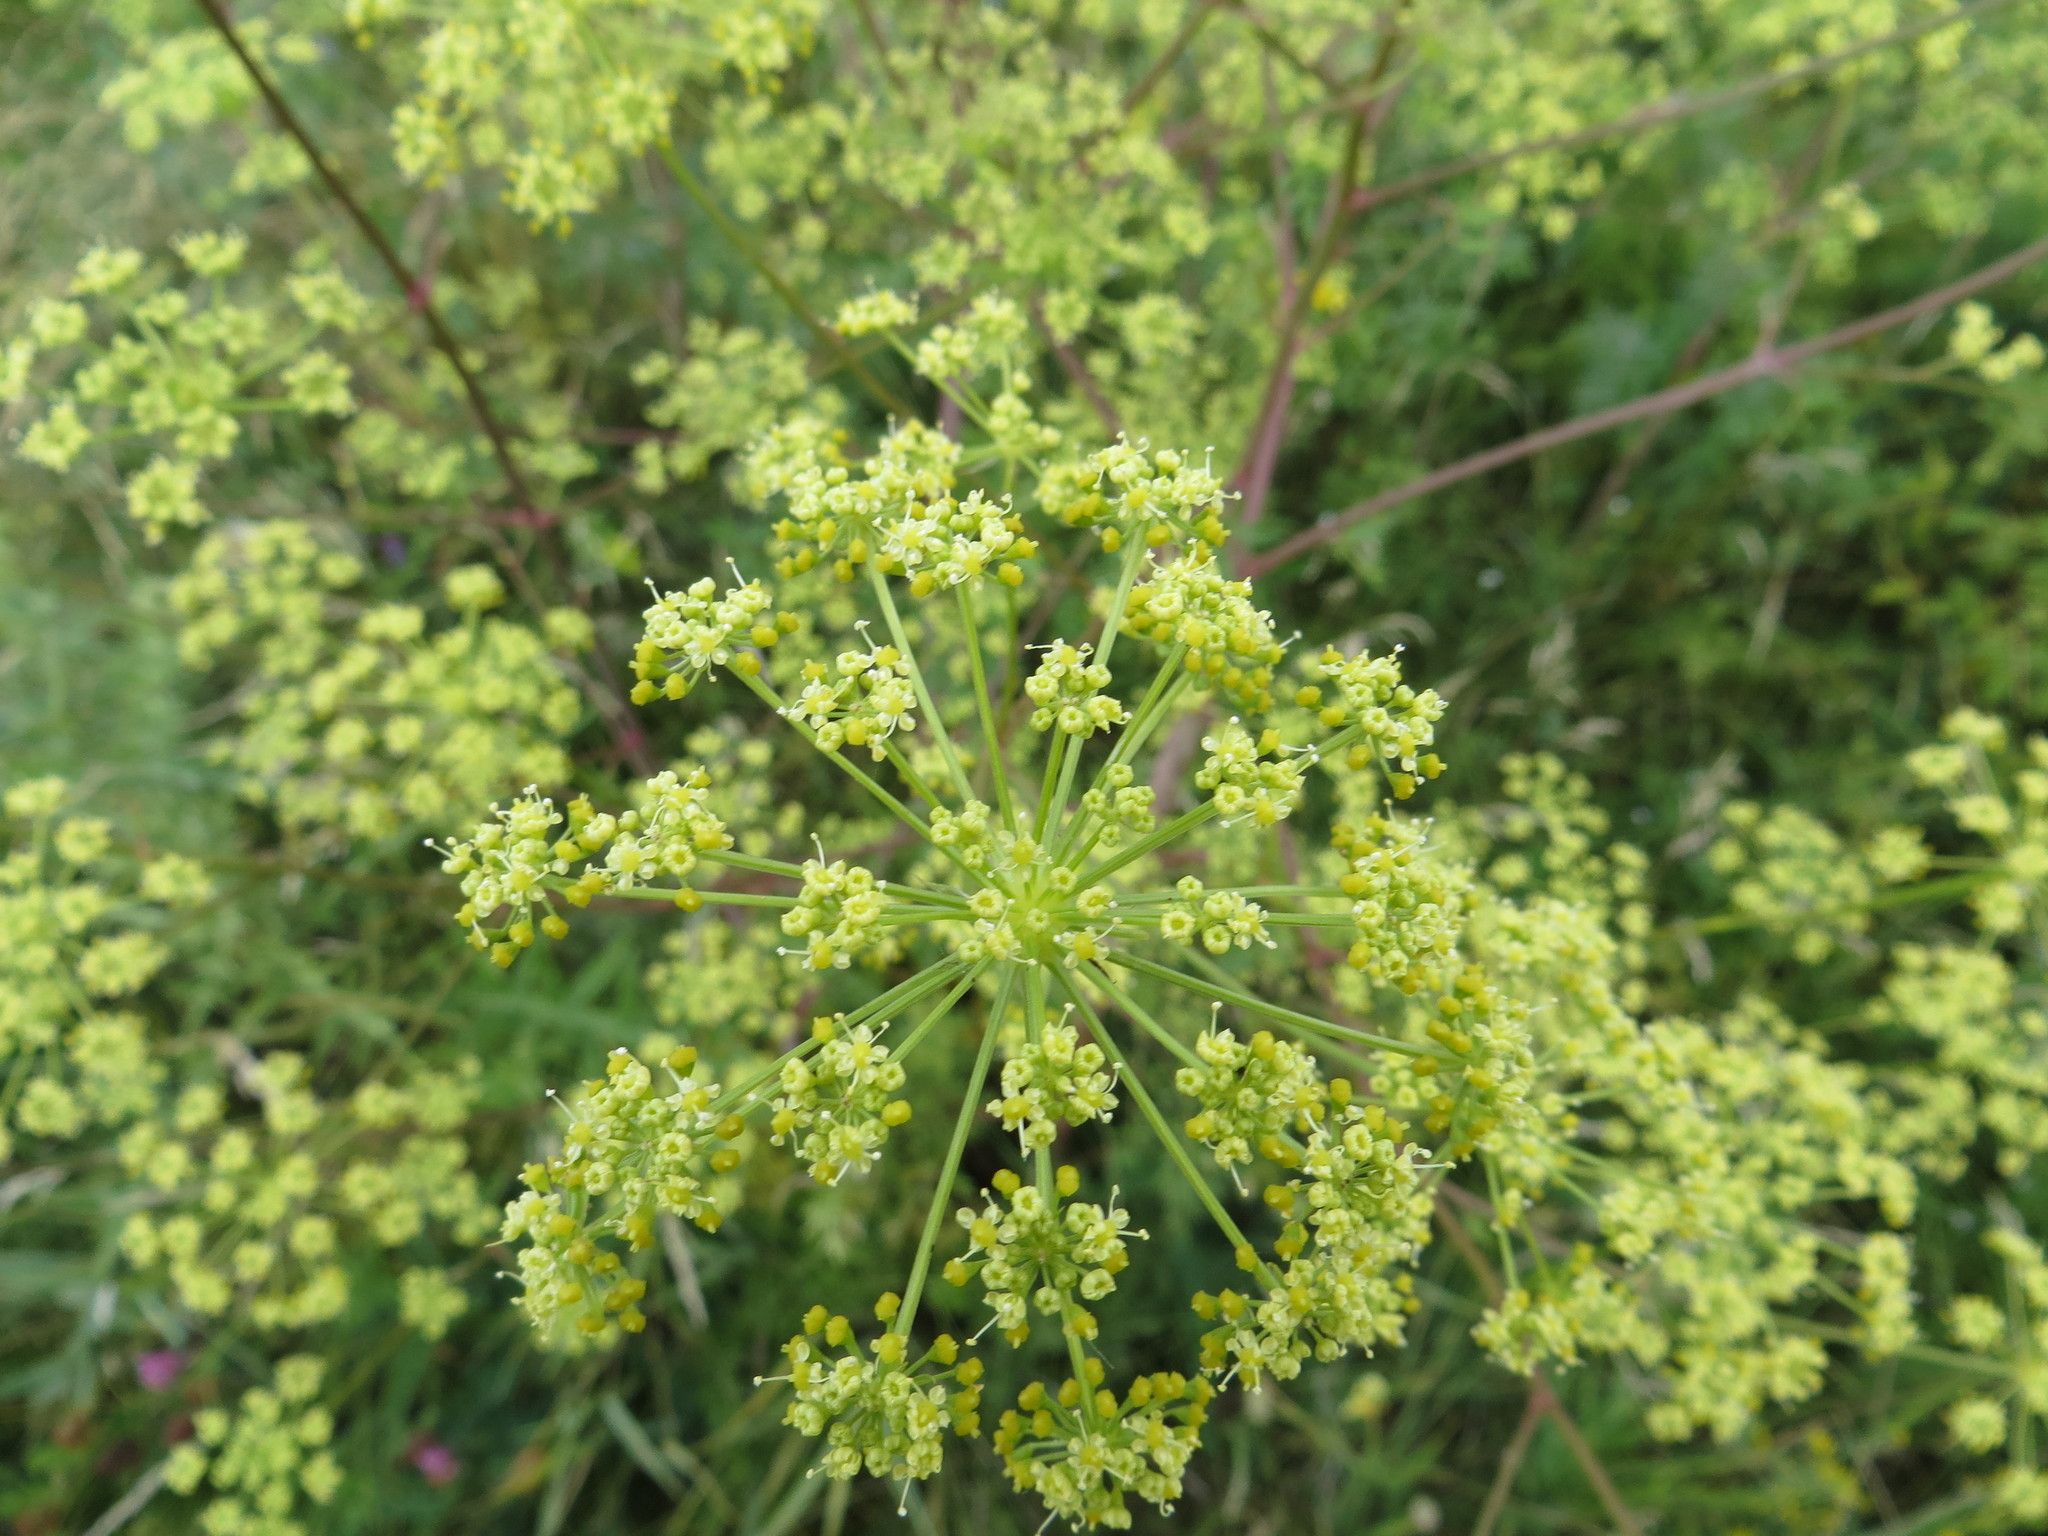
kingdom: Plantae
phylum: Tracheophyta
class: Magnoliopsida
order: Apiales
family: Apiaceae
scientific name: Apiaceae
